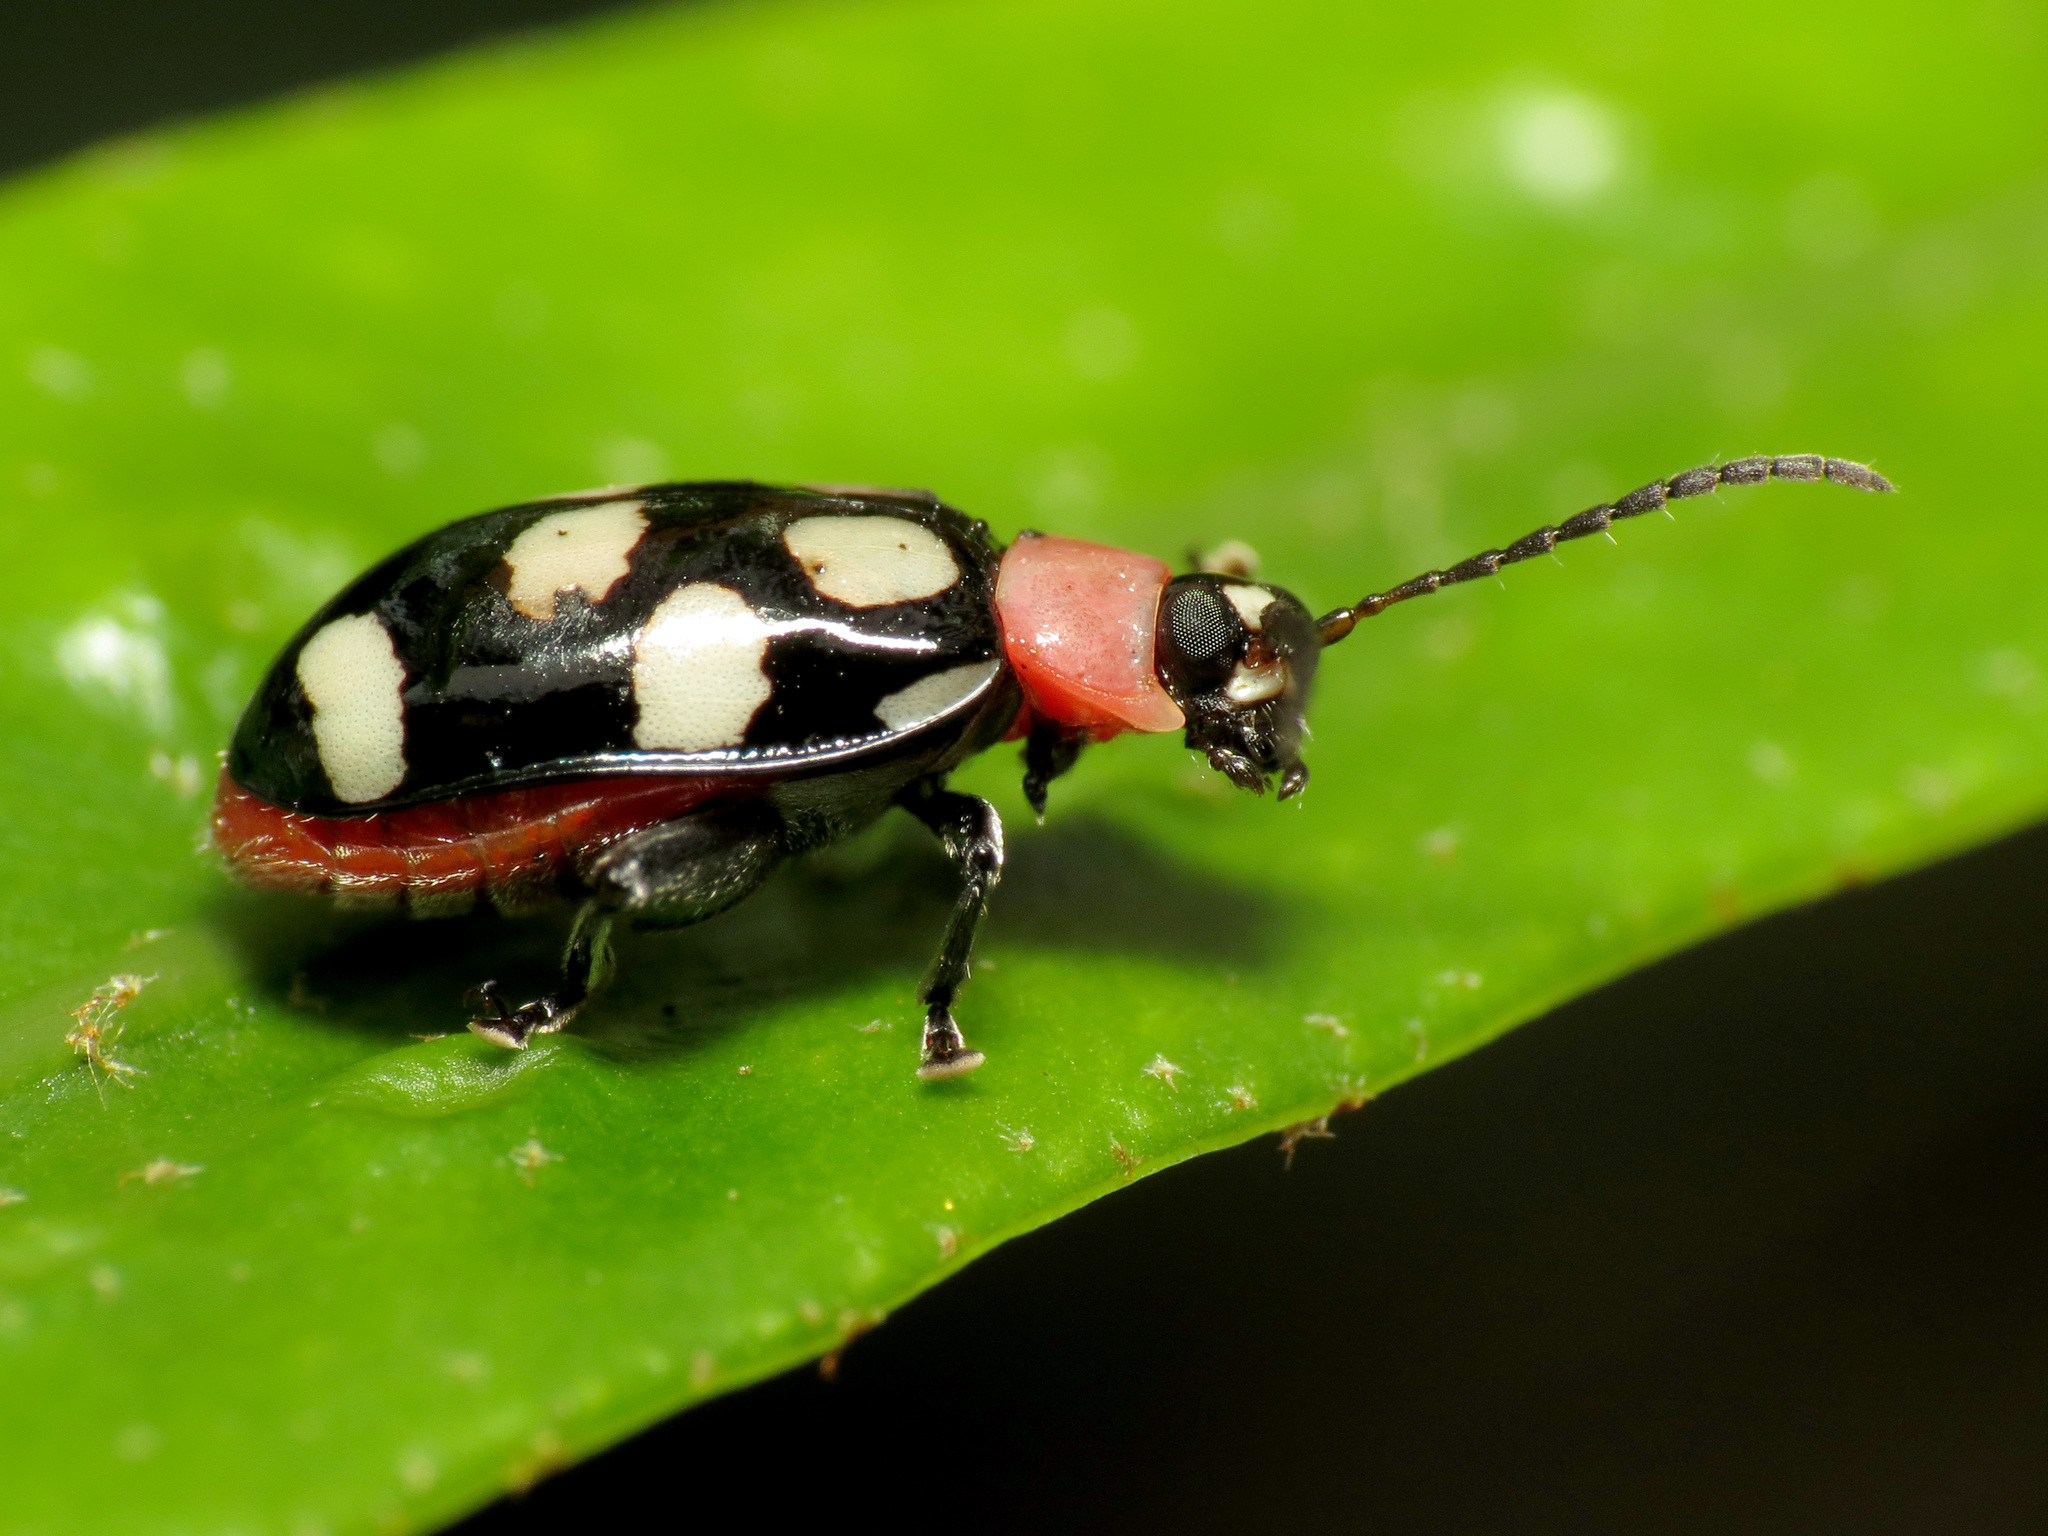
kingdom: Animalia
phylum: Arthropoda
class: Insecta
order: Coleoptera
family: Chrysomelidae
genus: Omophoita
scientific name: Omophoita aequinoctialis
